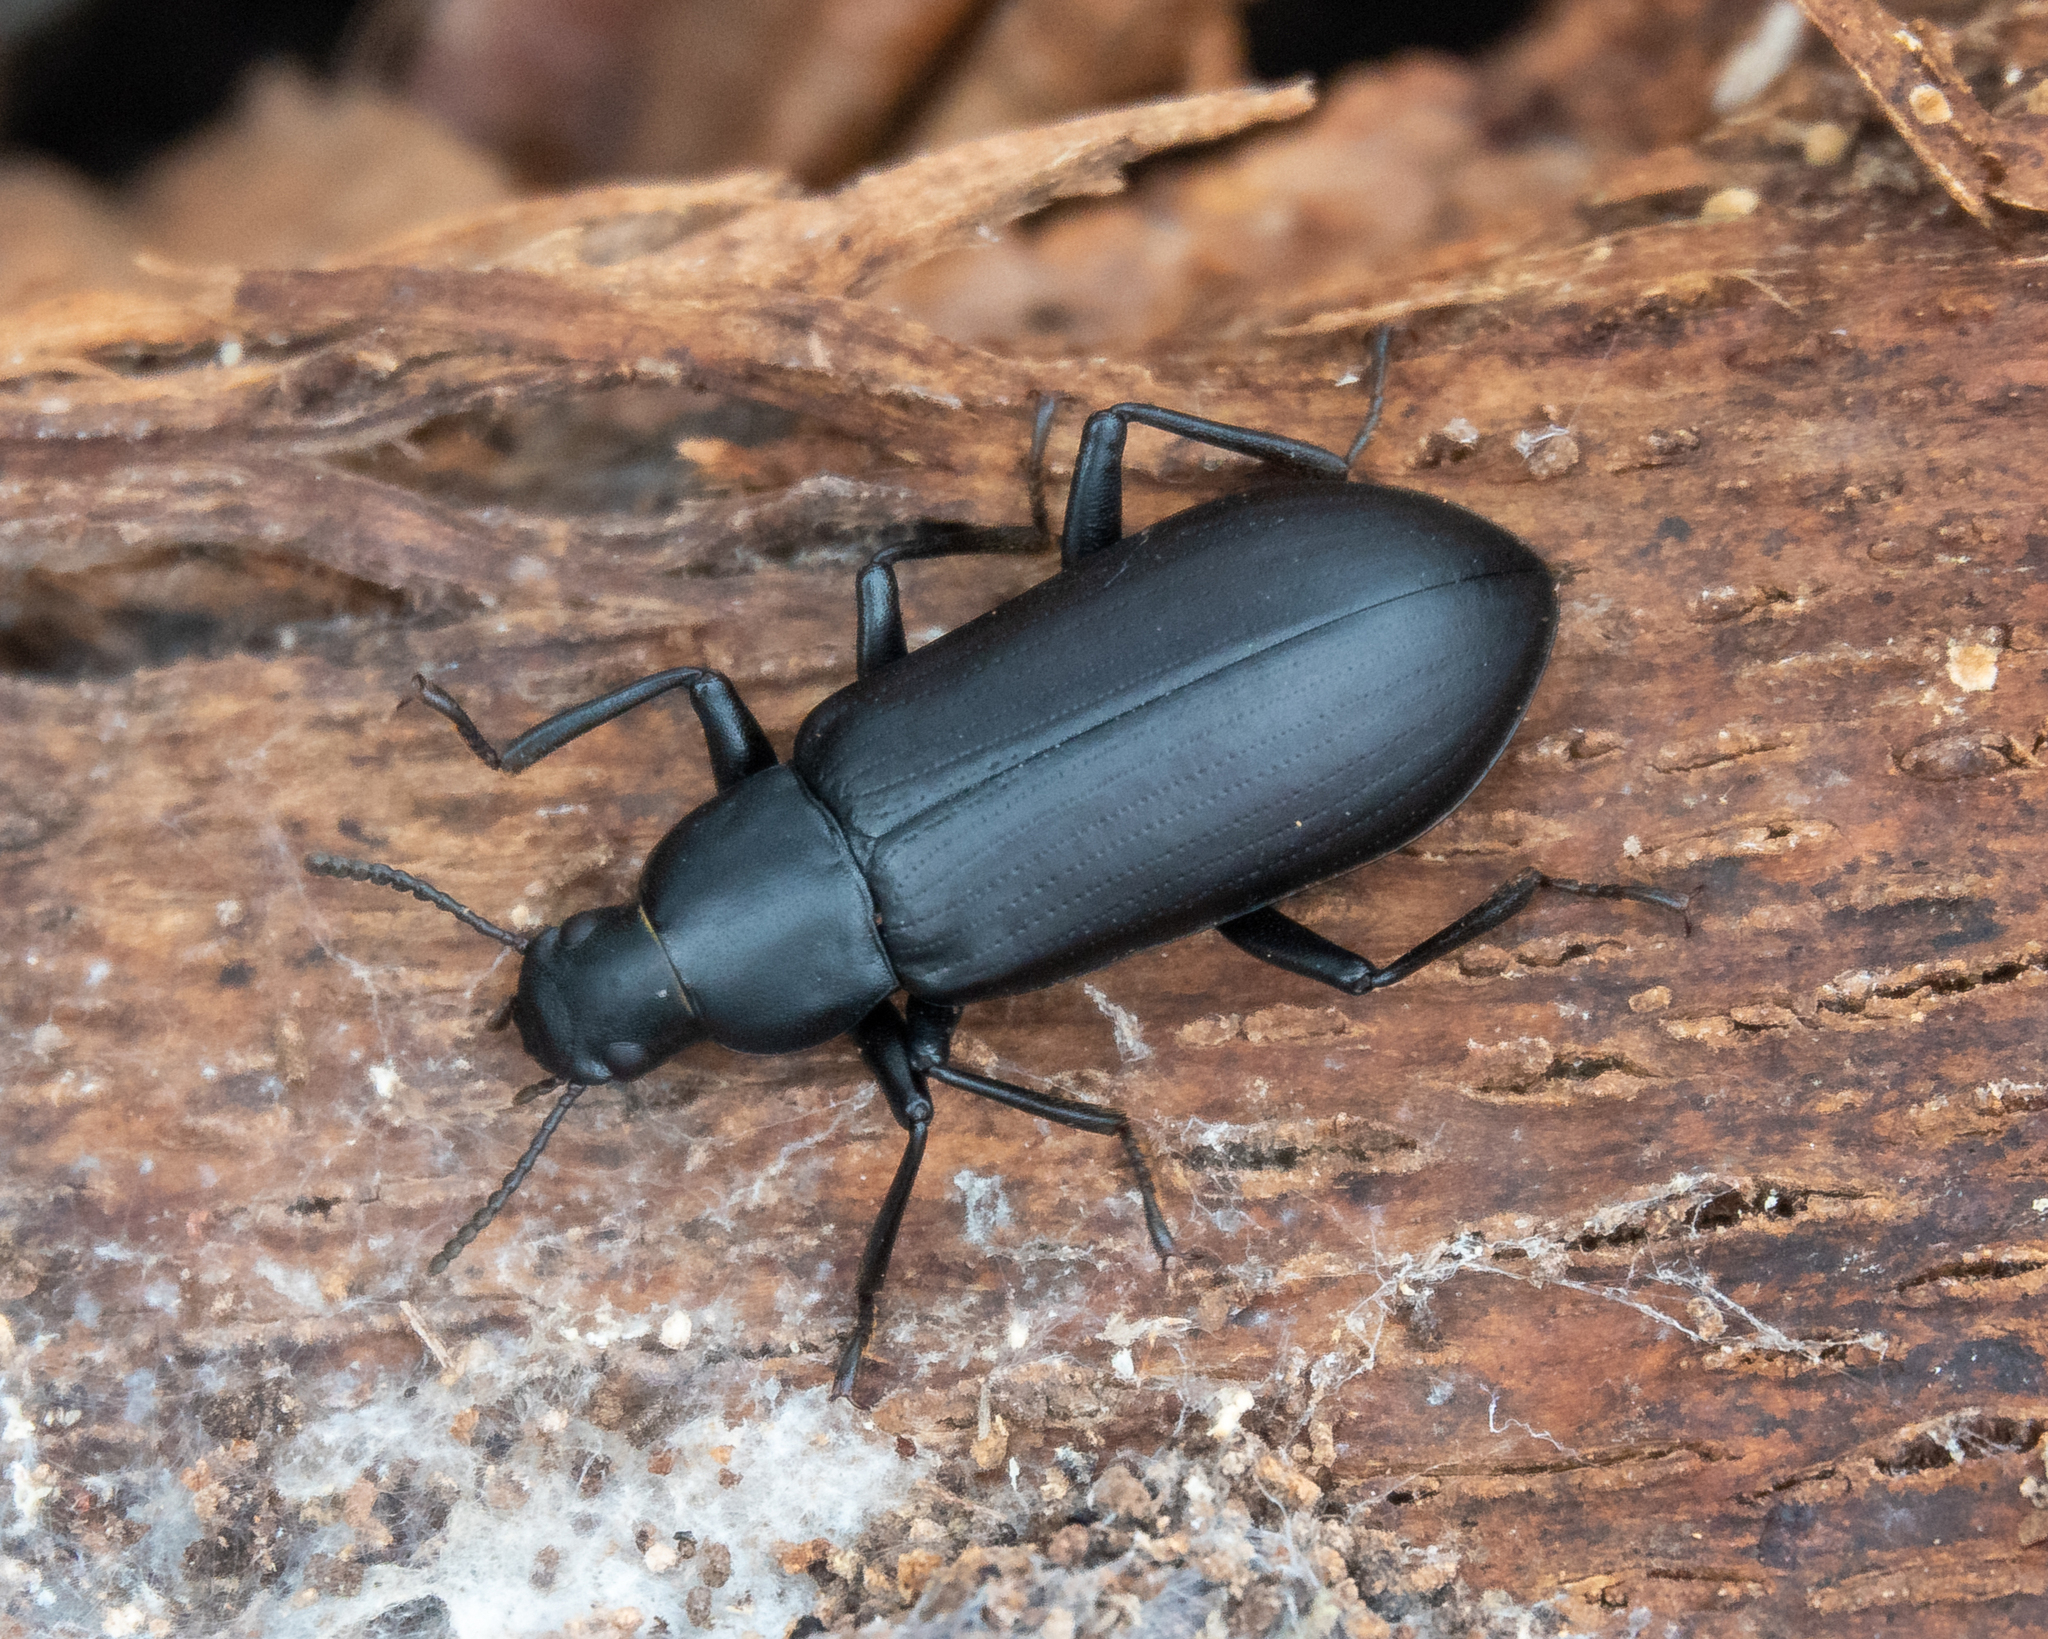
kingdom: Animalia
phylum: Arthropoda
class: Insecta
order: Coleoptera
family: Tenebrionidae
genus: Alobates
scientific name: Alobates pensylvanicus
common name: False mealworm beetle
